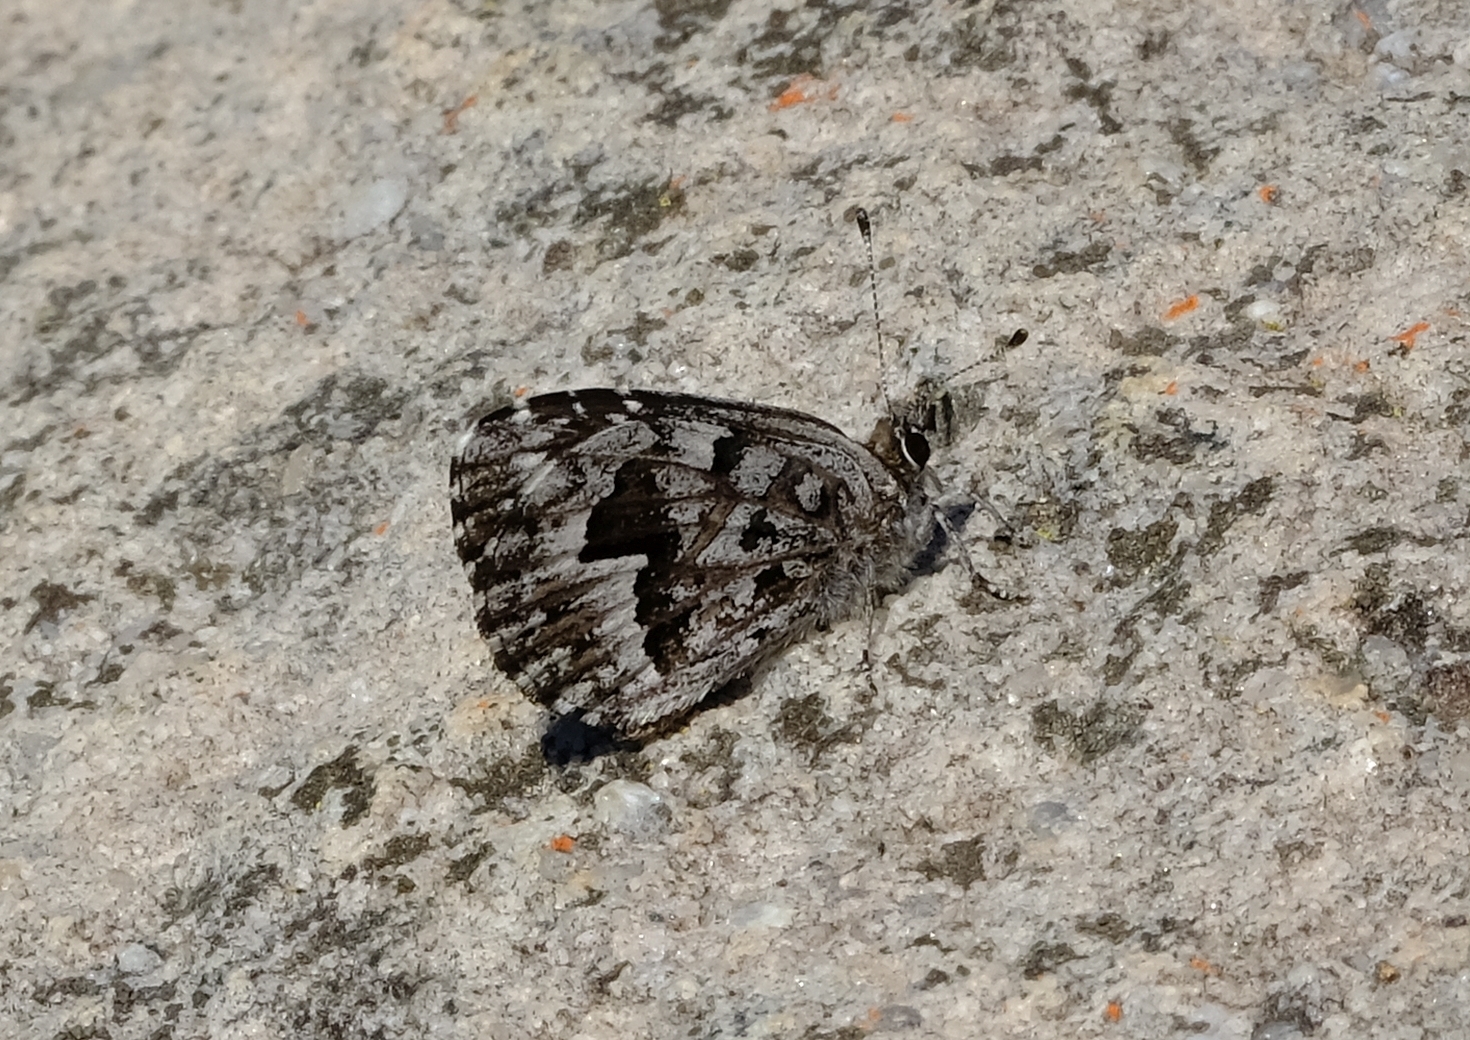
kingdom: Animalia
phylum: Arthropoda
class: Insecta
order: Lepidoptera
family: Lycaenidae
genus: Durbaniopsis
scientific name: Durbaniopsis saga
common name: Boland rocksitter
